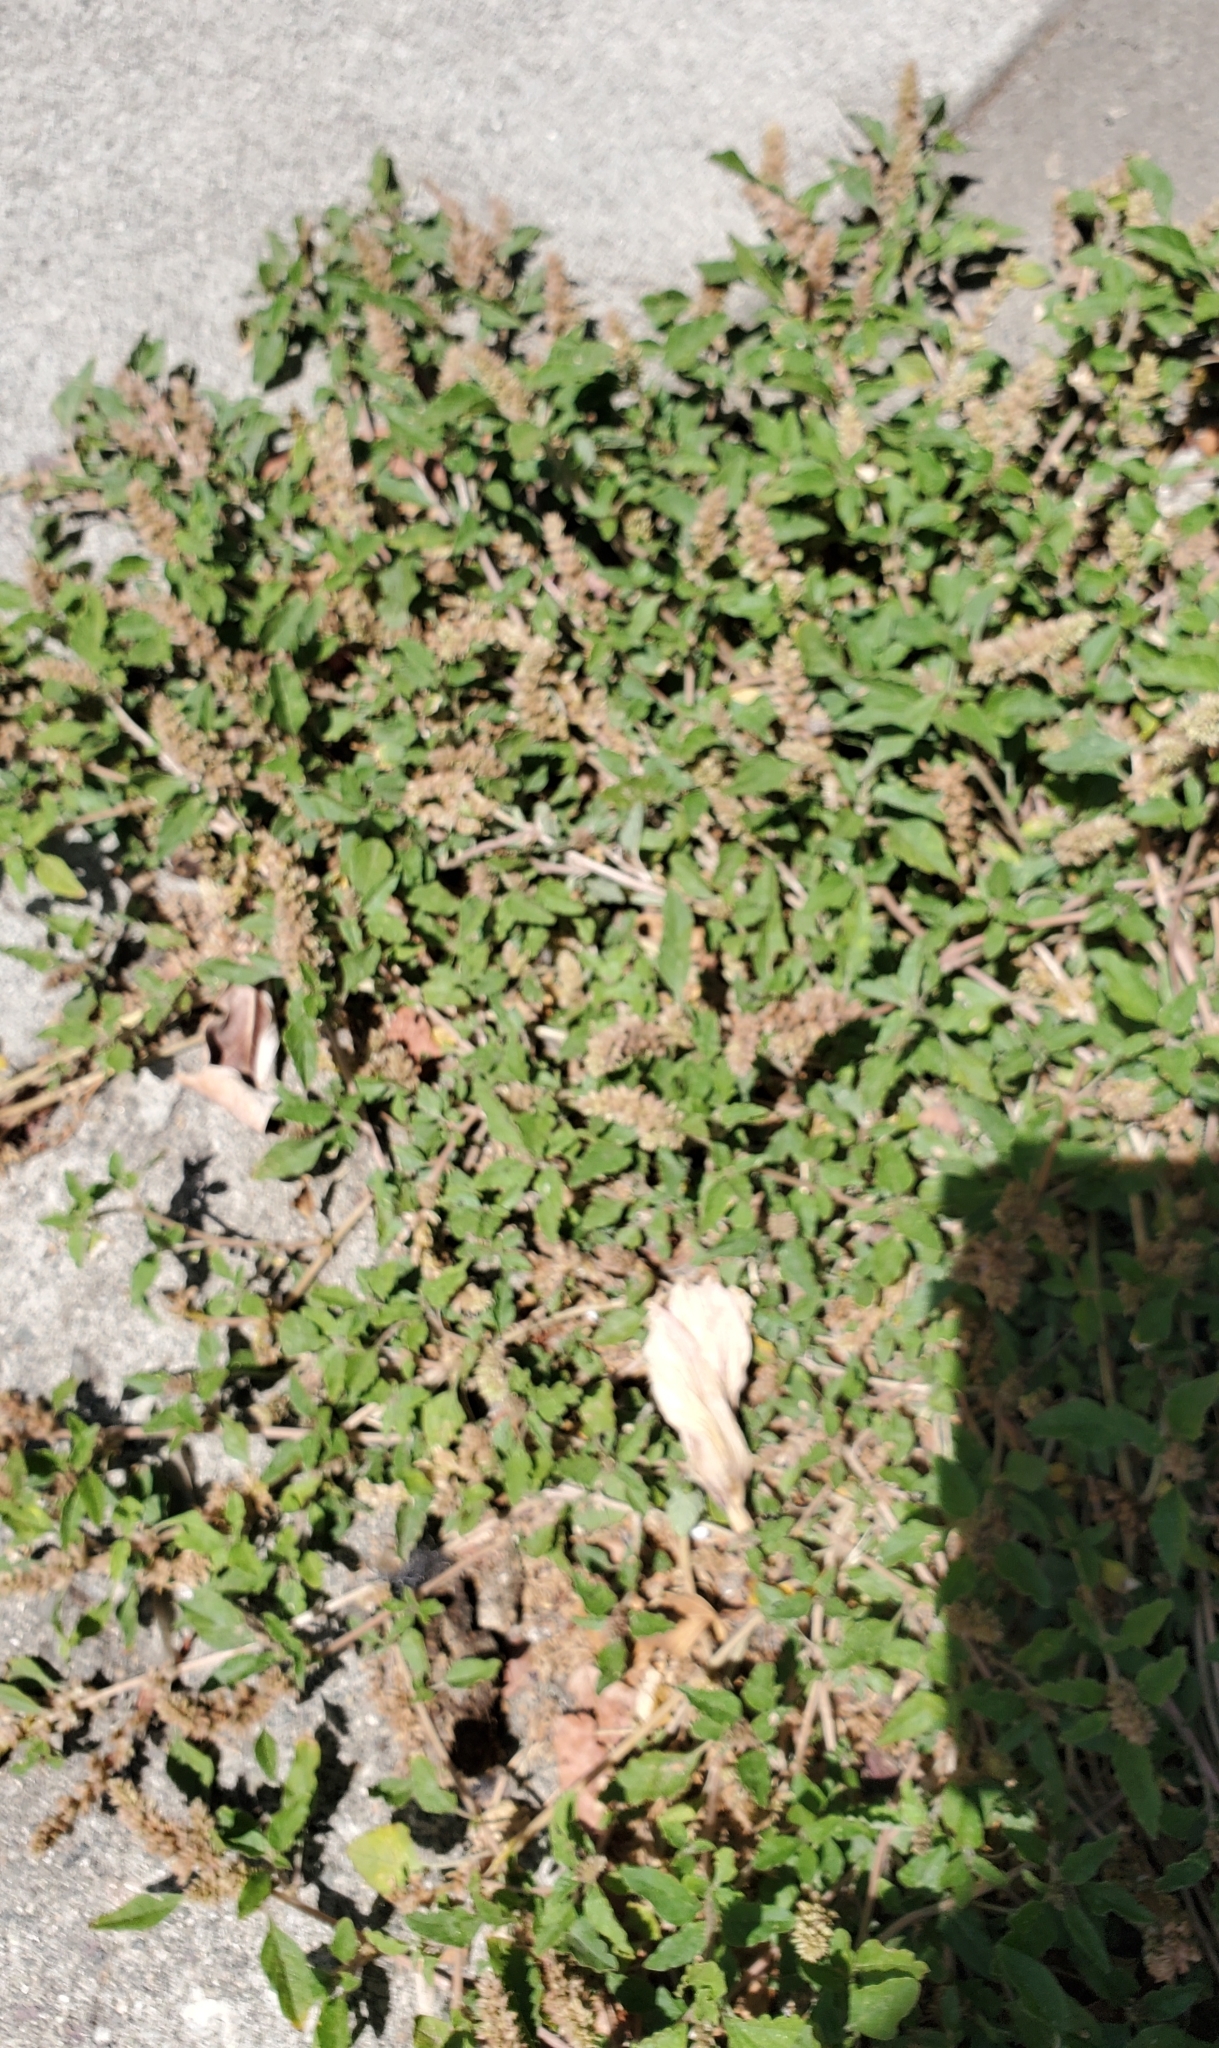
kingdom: Plantae
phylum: Tracheophyta
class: Magnoliopsida
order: Caryophyllales
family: Amaranthaceae
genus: Amaranthus
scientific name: Amaranthus deflexus
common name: Perennial pigweed
